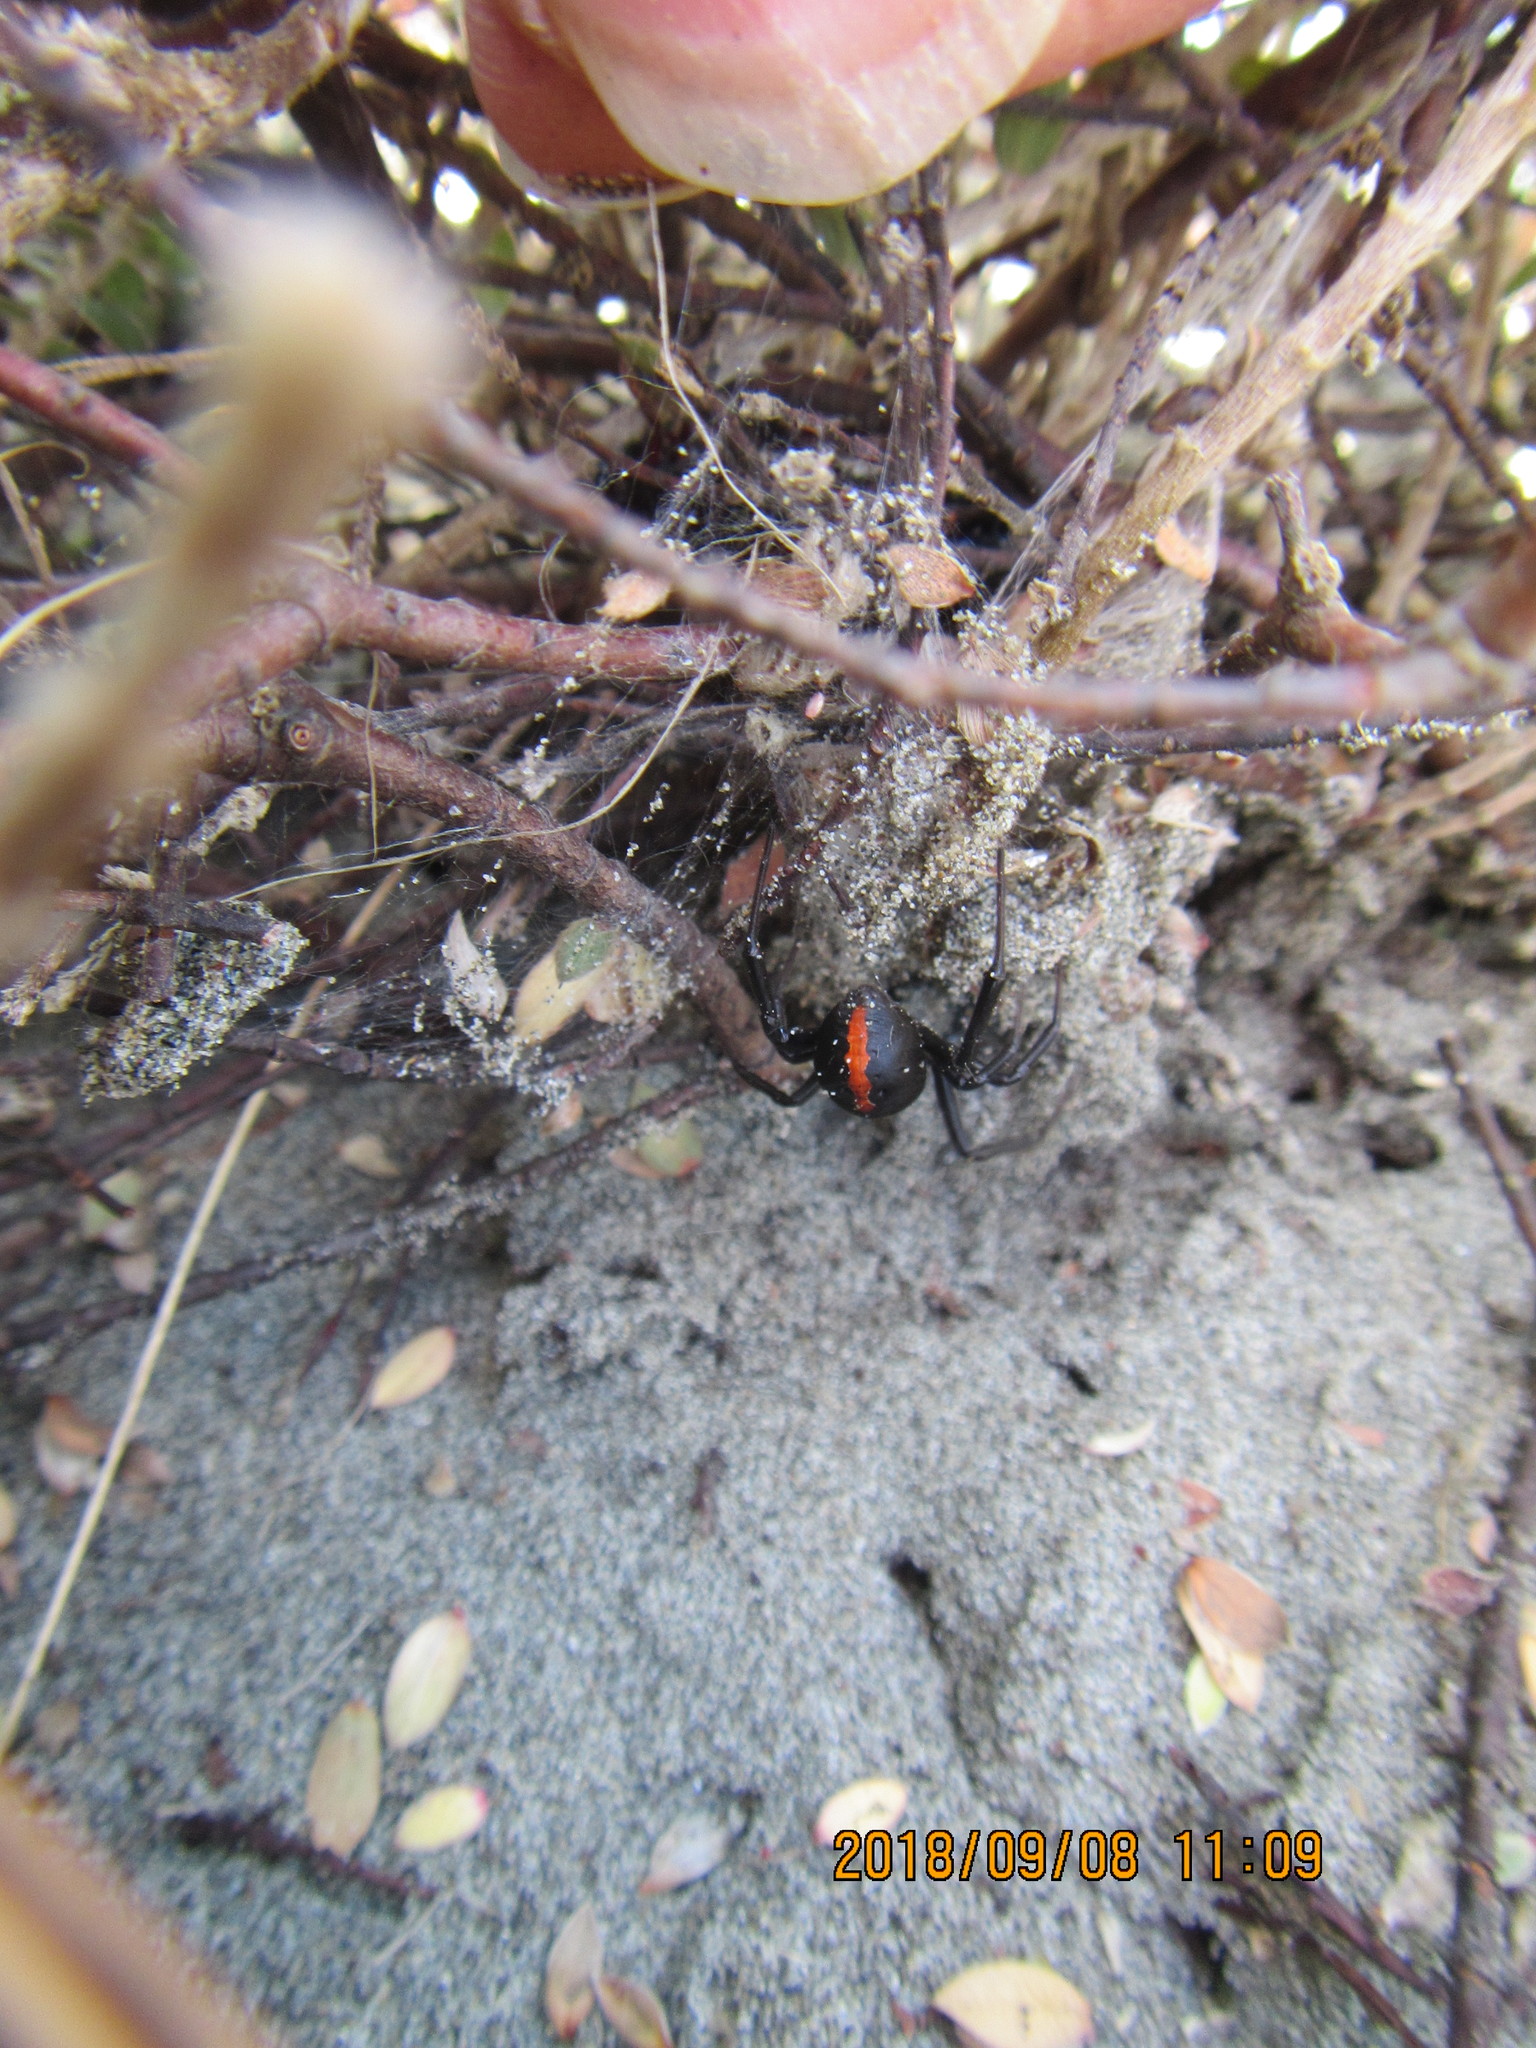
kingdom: Animalia
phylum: Arthropoda
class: Arachnida
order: Araneae
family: Theridiidae
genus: Latrodectus
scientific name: Latrodectus katipo
